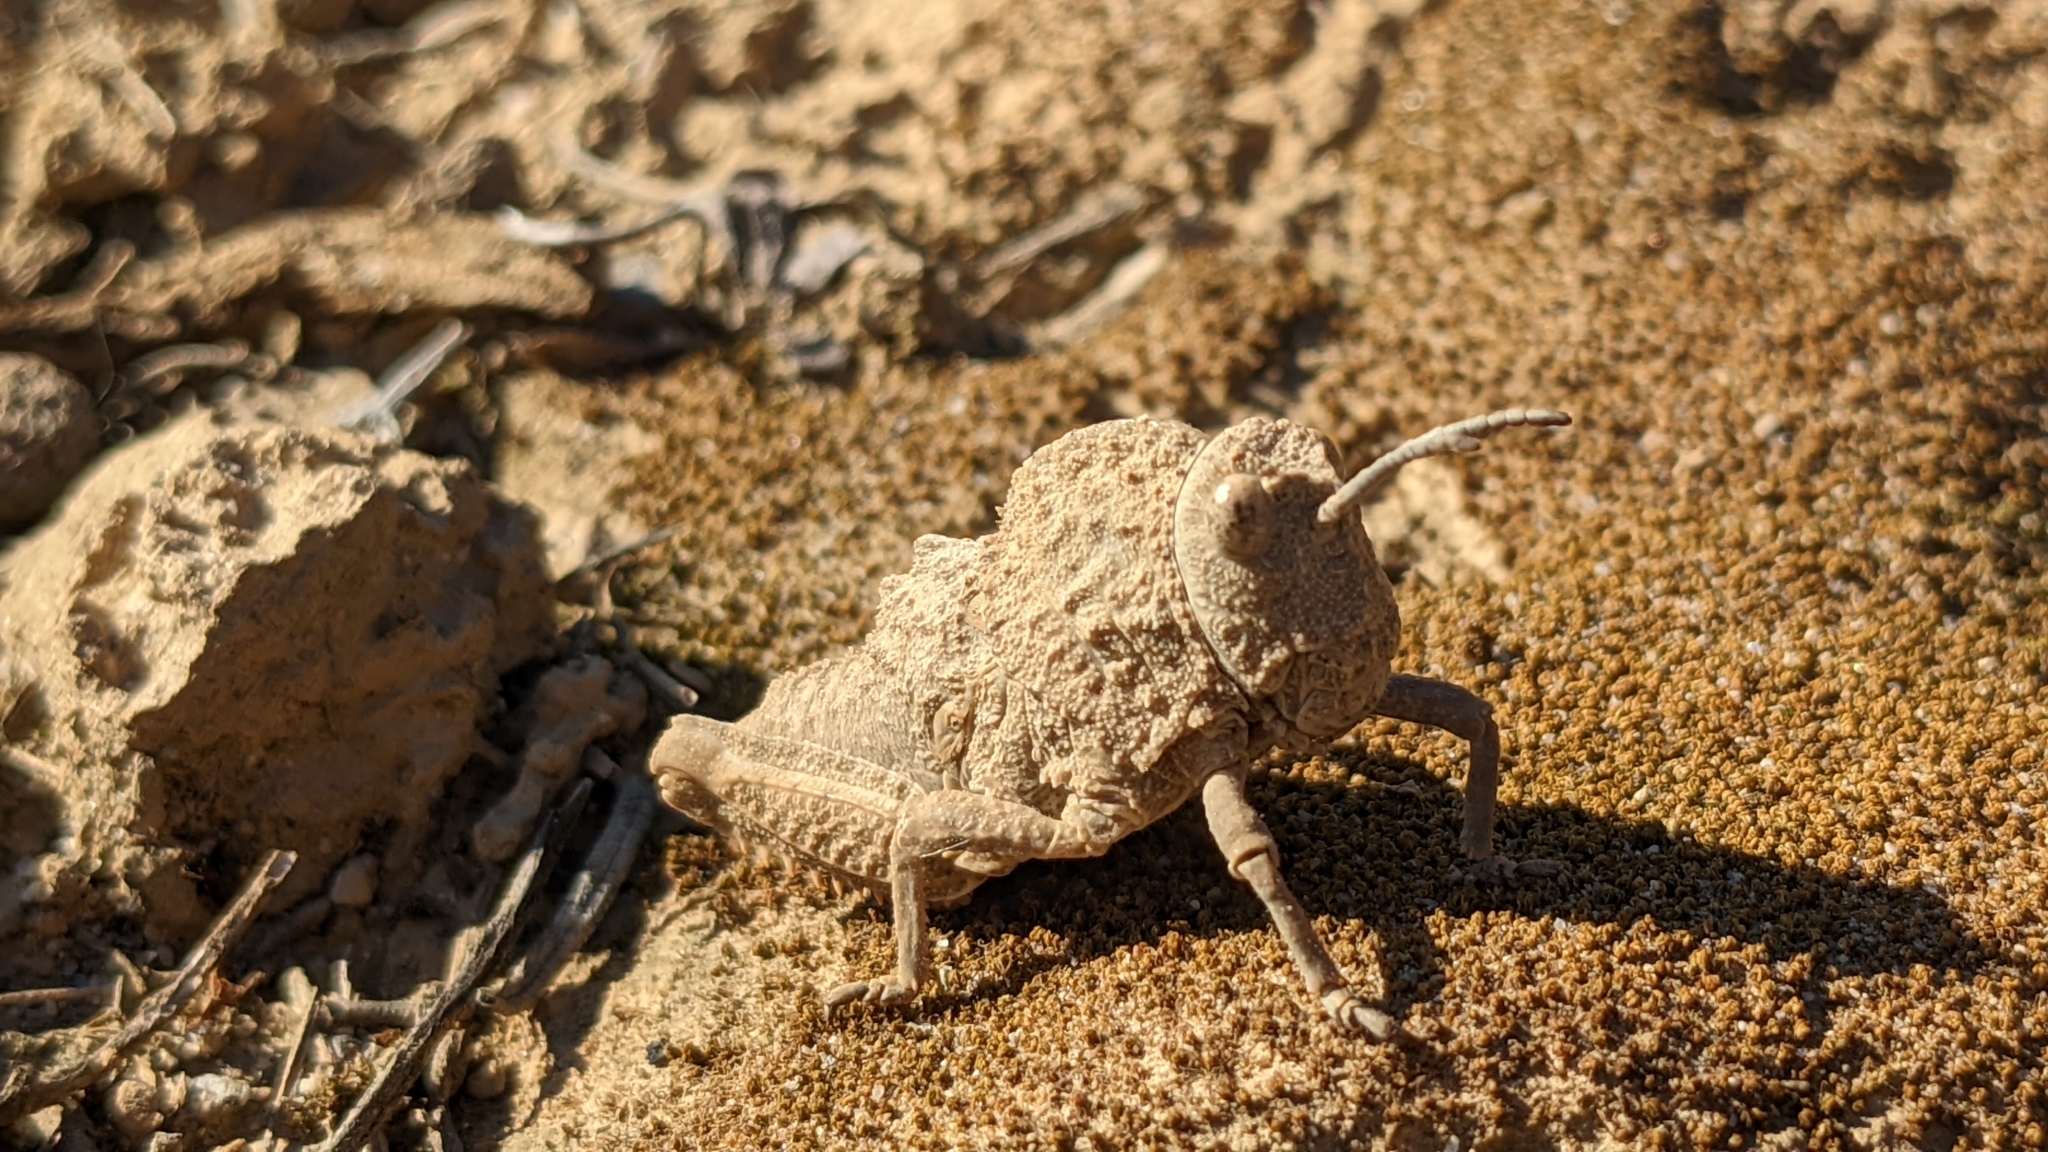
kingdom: Animalia
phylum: Arthropoda
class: Insecta
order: Orthoptera
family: Pamphagidae
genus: Ocnerodes
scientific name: Ocnerodes brunnerii
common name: Brunner's stone grasshopper
